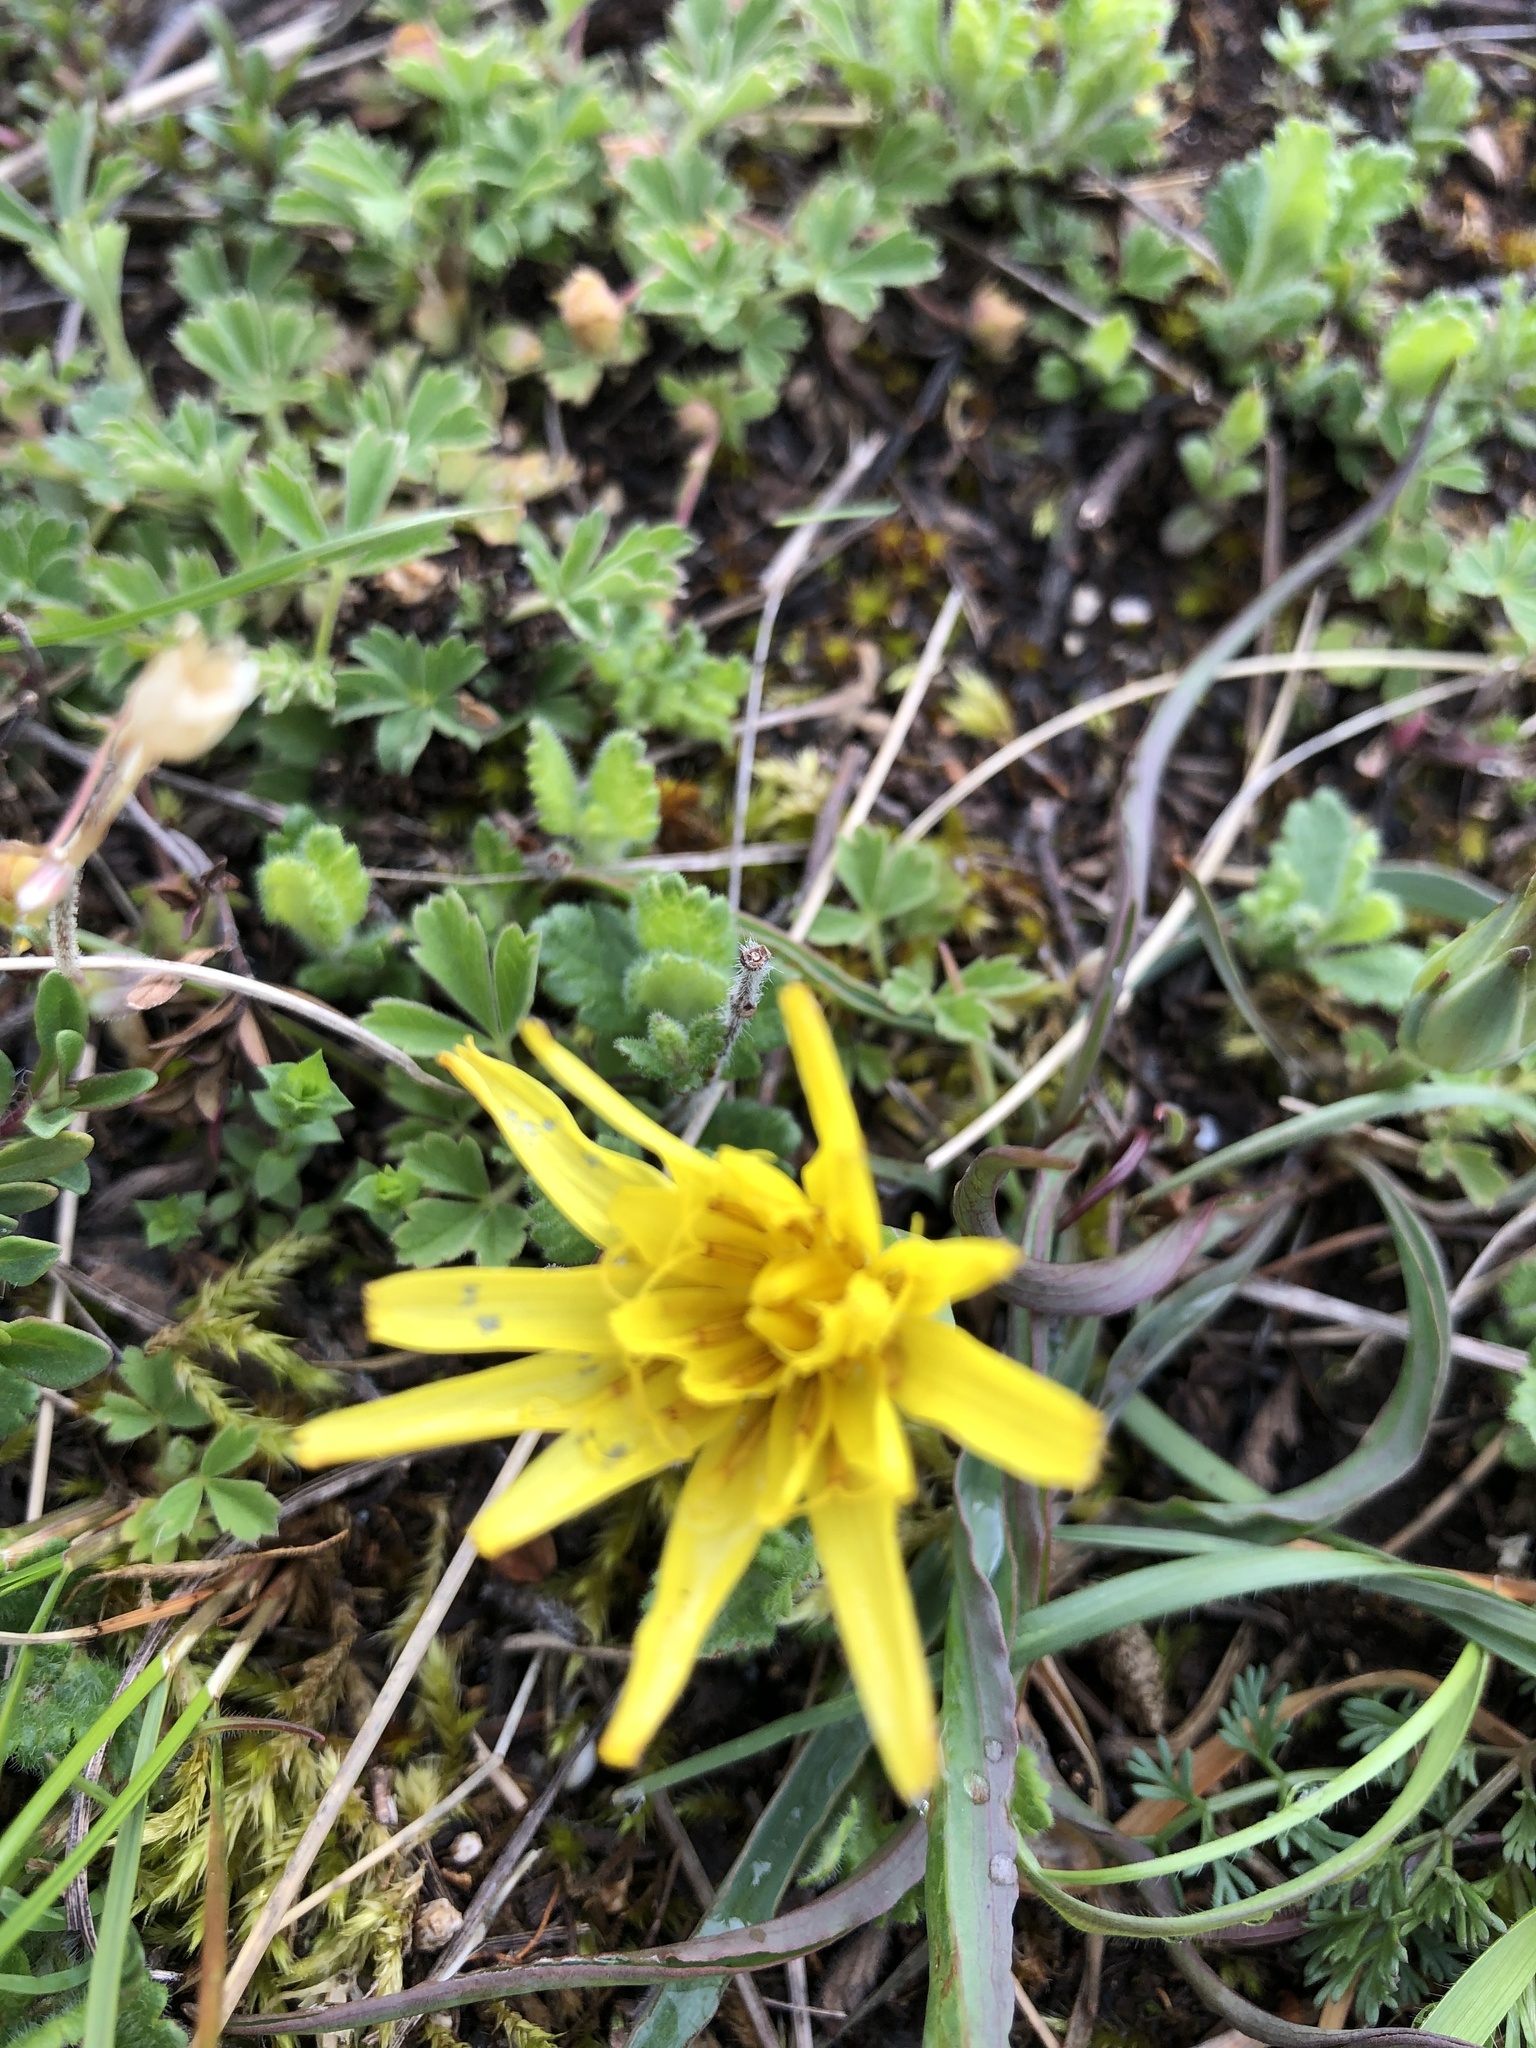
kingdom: Plantae
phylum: Tracheophyta
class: Magnoliopsida
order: Asterales
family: Asteraceae
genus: Takhtajaniantha
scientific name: Takhtajaniantha austriaca
